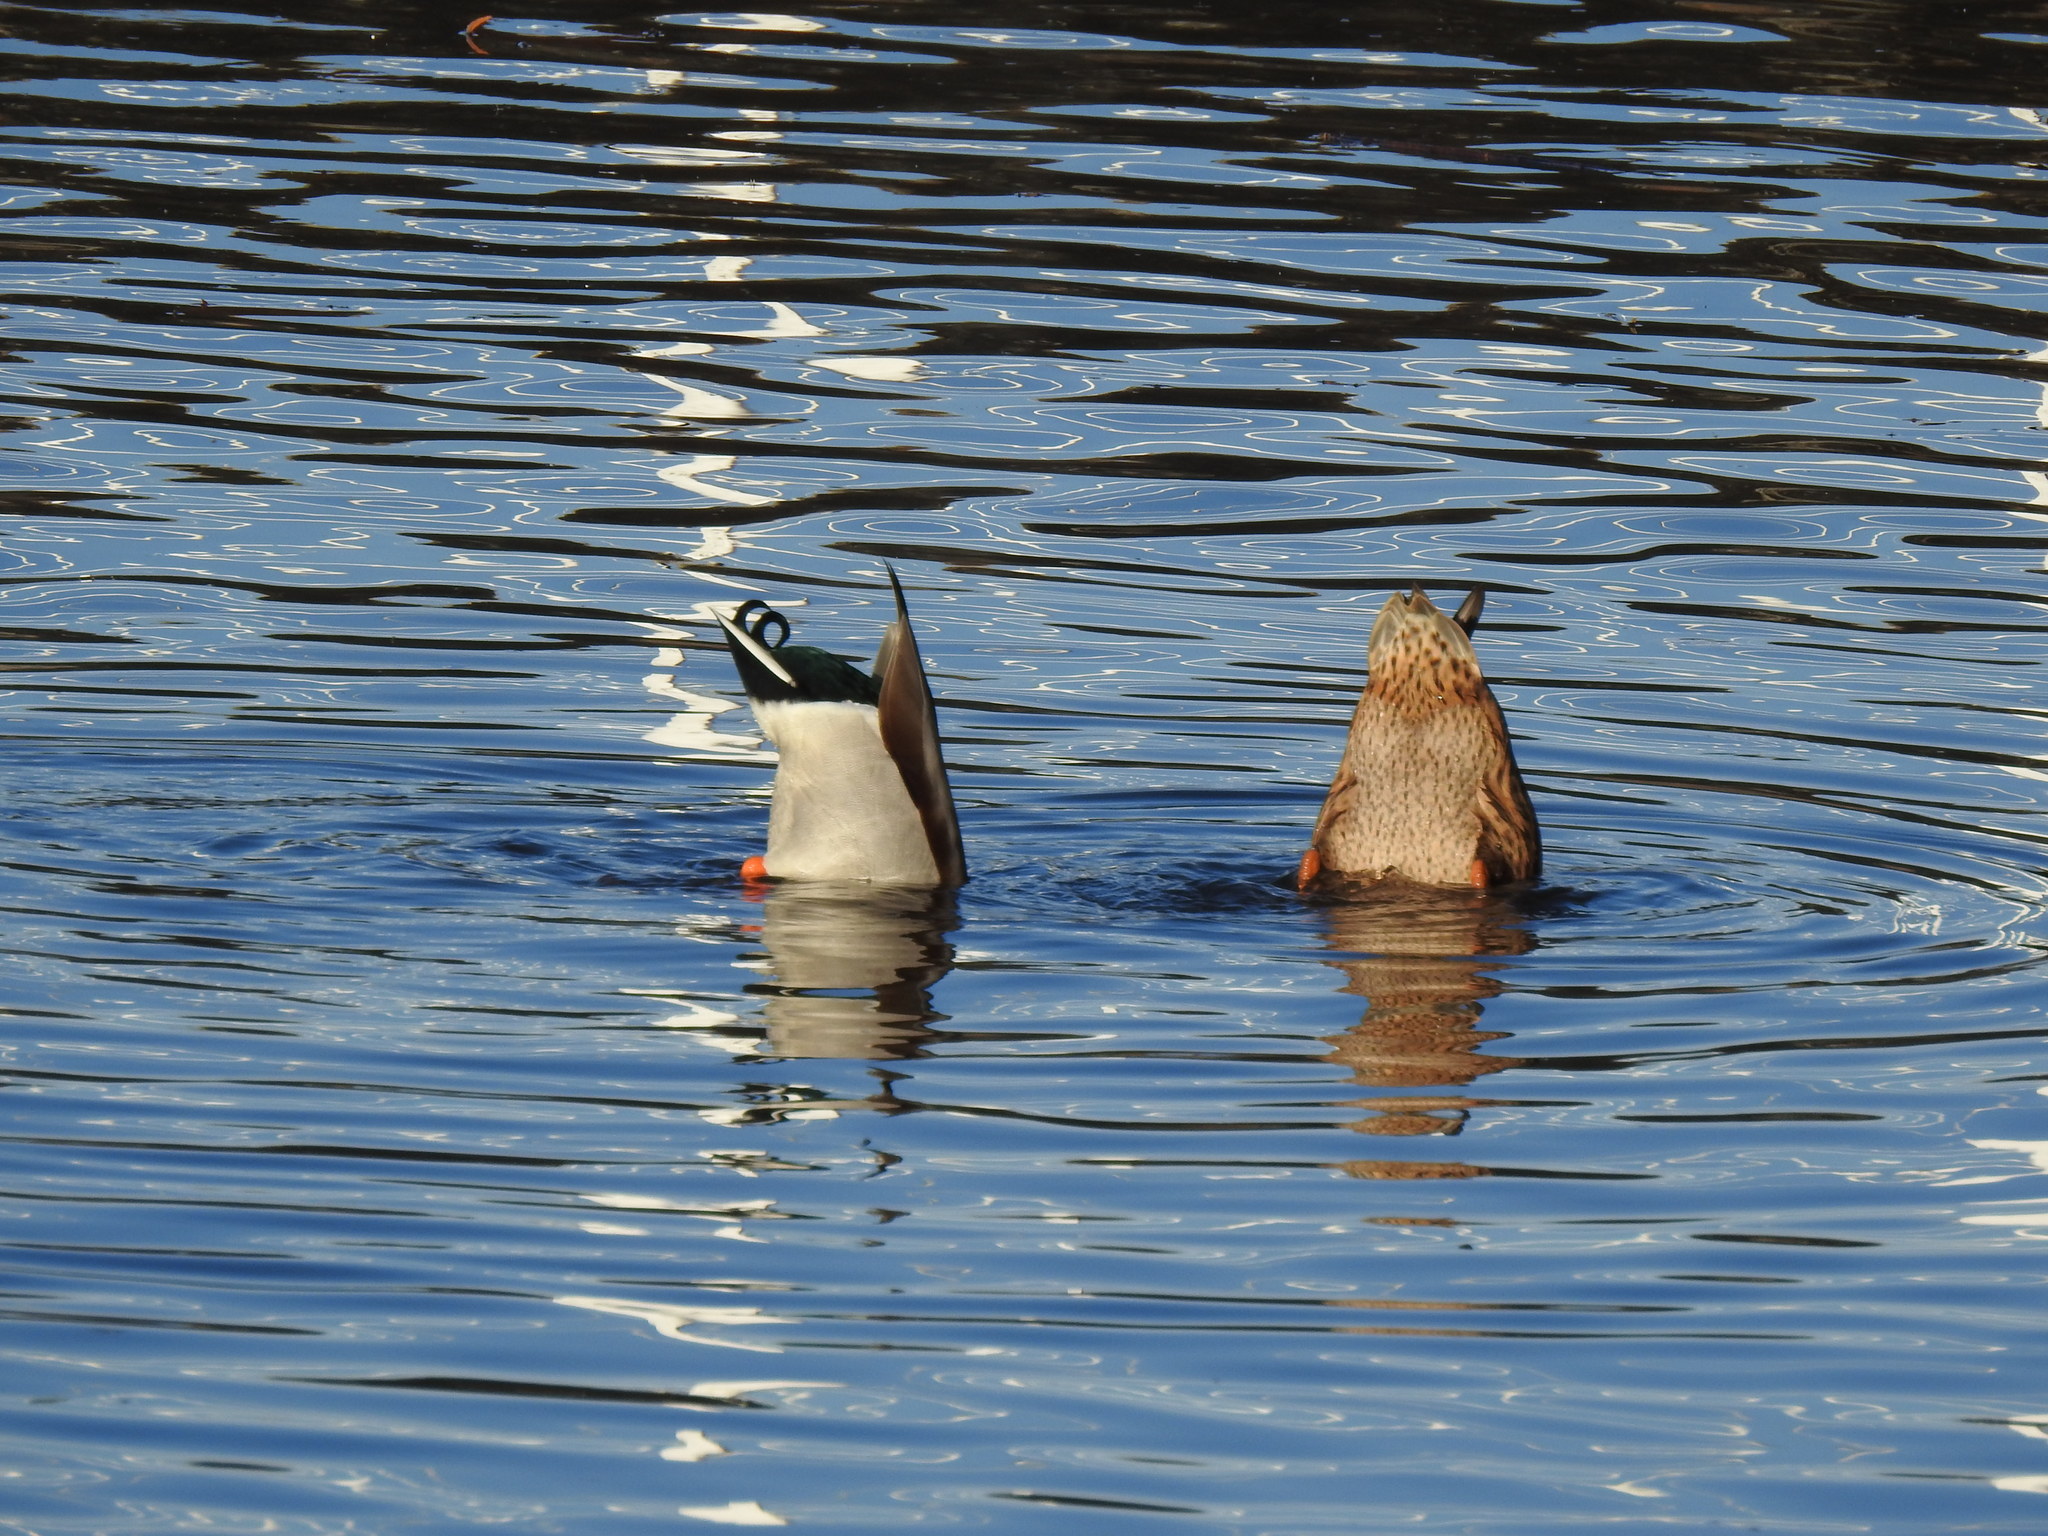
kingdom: Animalia
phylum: Chordata
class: Aves
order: Anseriformes
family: Anatidae
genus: Anas
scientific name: Anas platyrhynchos
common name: Mallard
